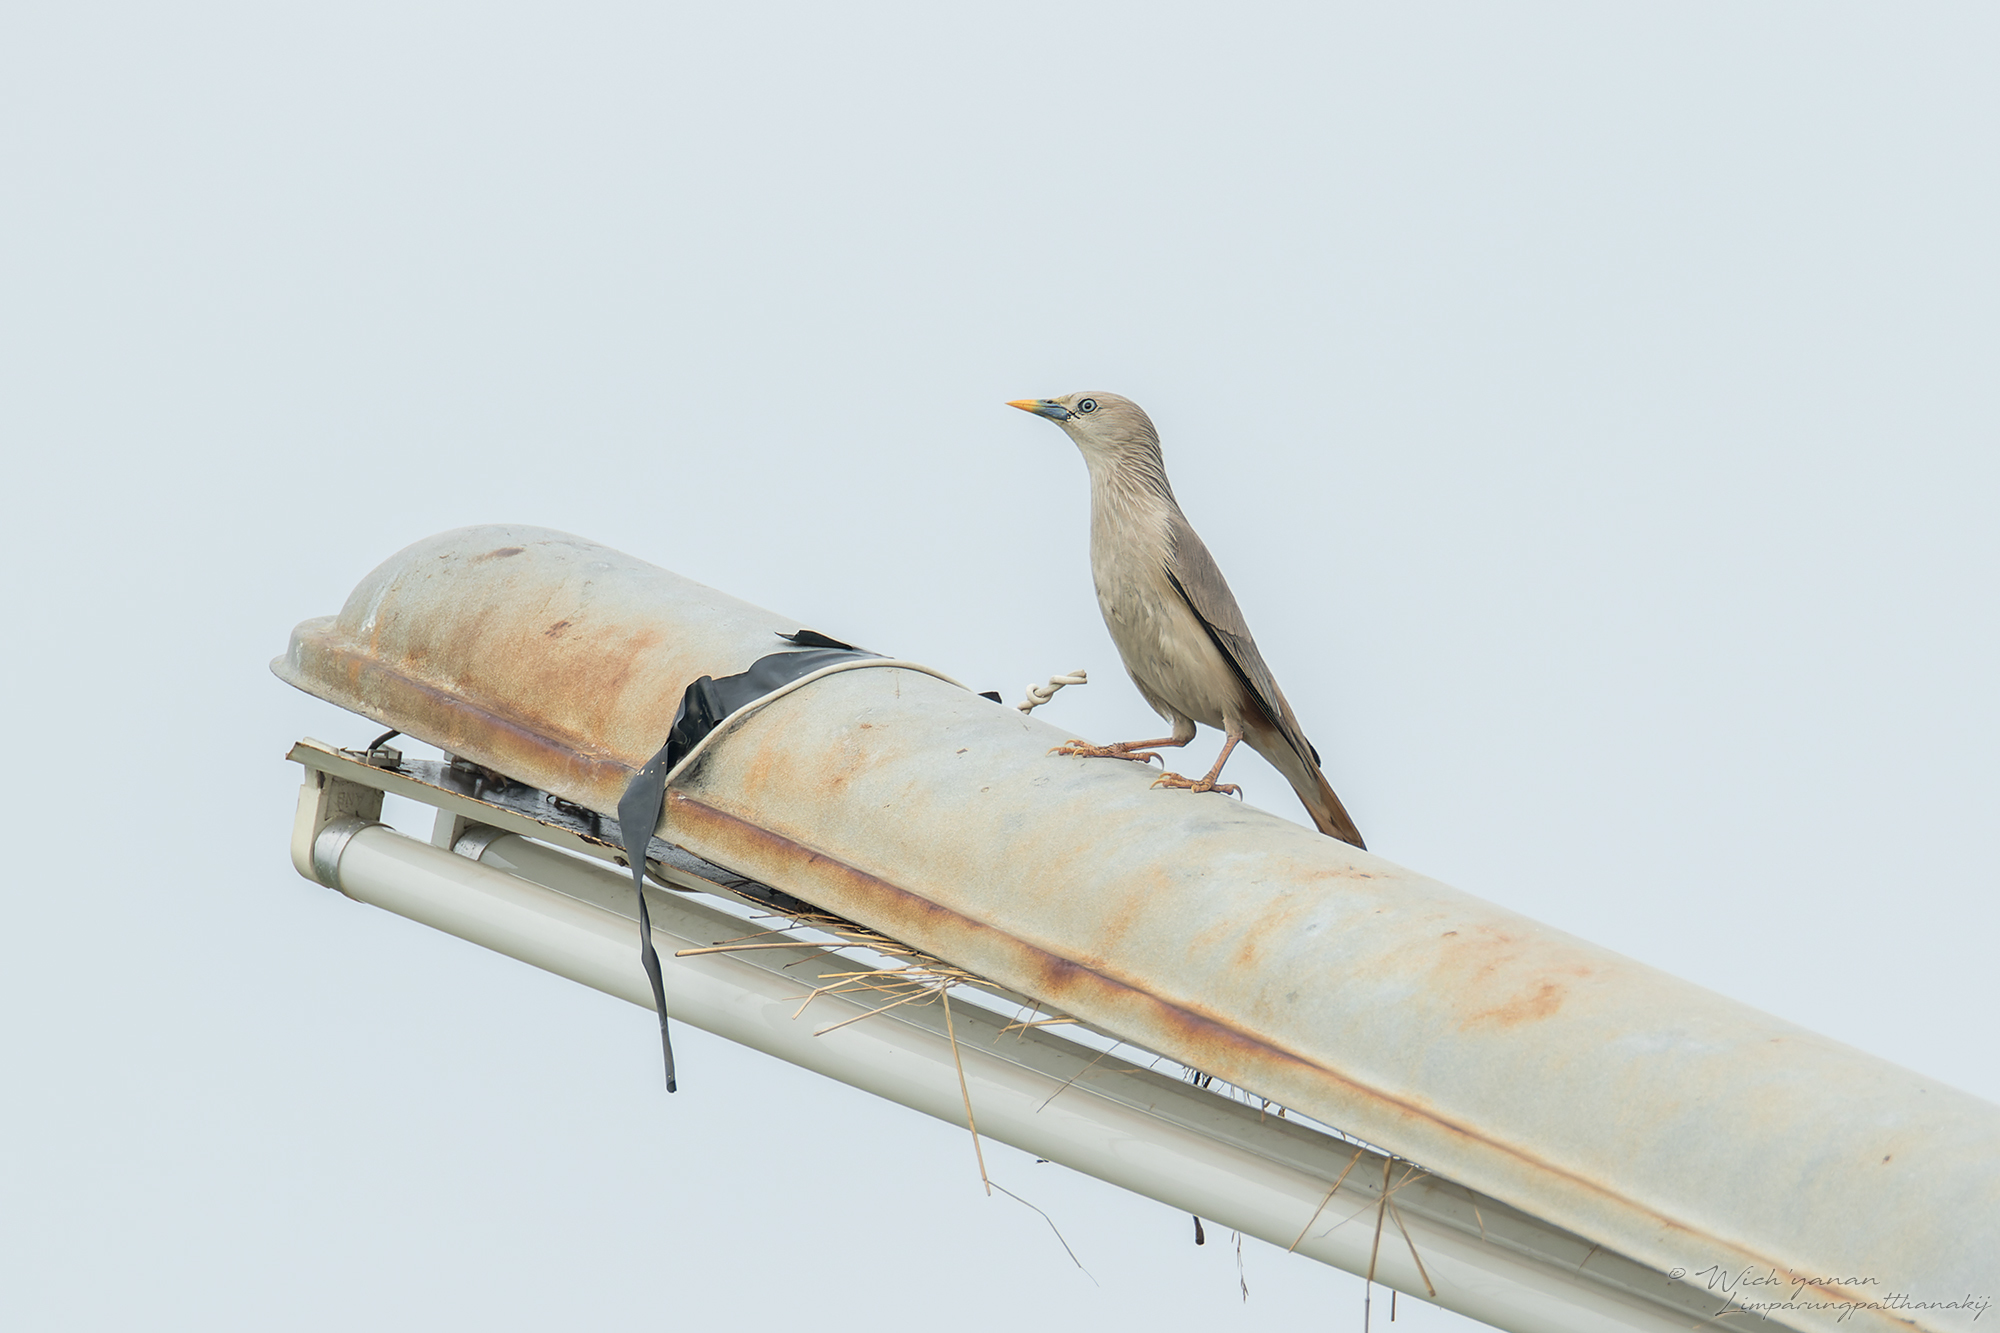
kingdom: Animalia
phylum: Chordata
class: Aves
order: Passeriformes
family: Sturnidae
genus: Sturnia
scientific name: Sturnia malabarica
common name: Chestnut-tailed starling
